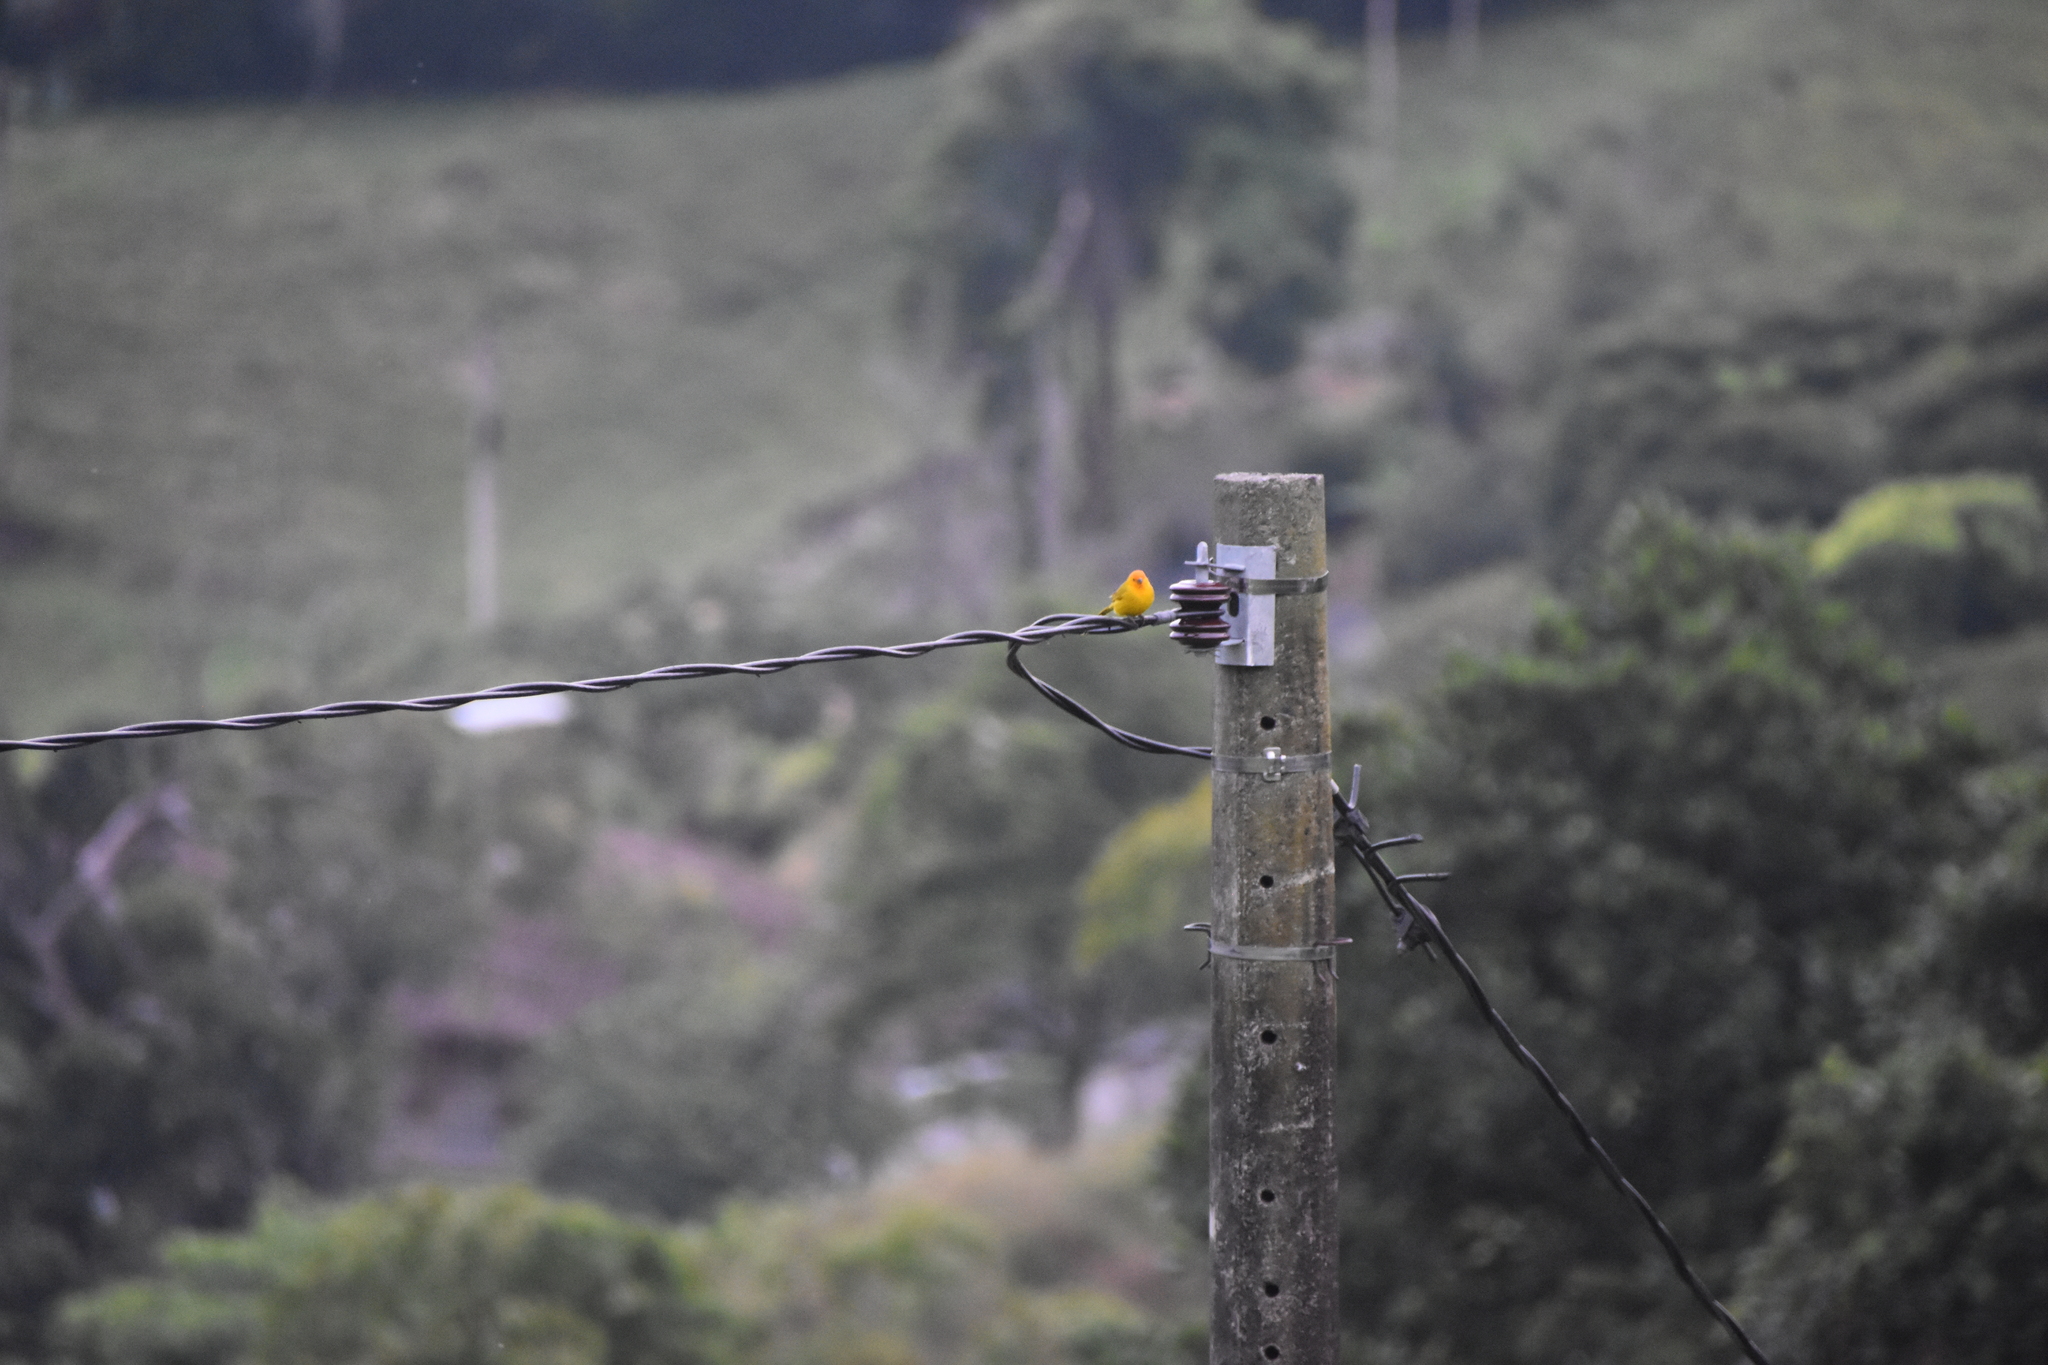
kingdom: Animalia
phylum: Chordata
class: Aves
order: Passeriformes
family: Thraupidae
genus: Sicalis
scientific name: Sicalis flaveola
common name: Saffron finch
